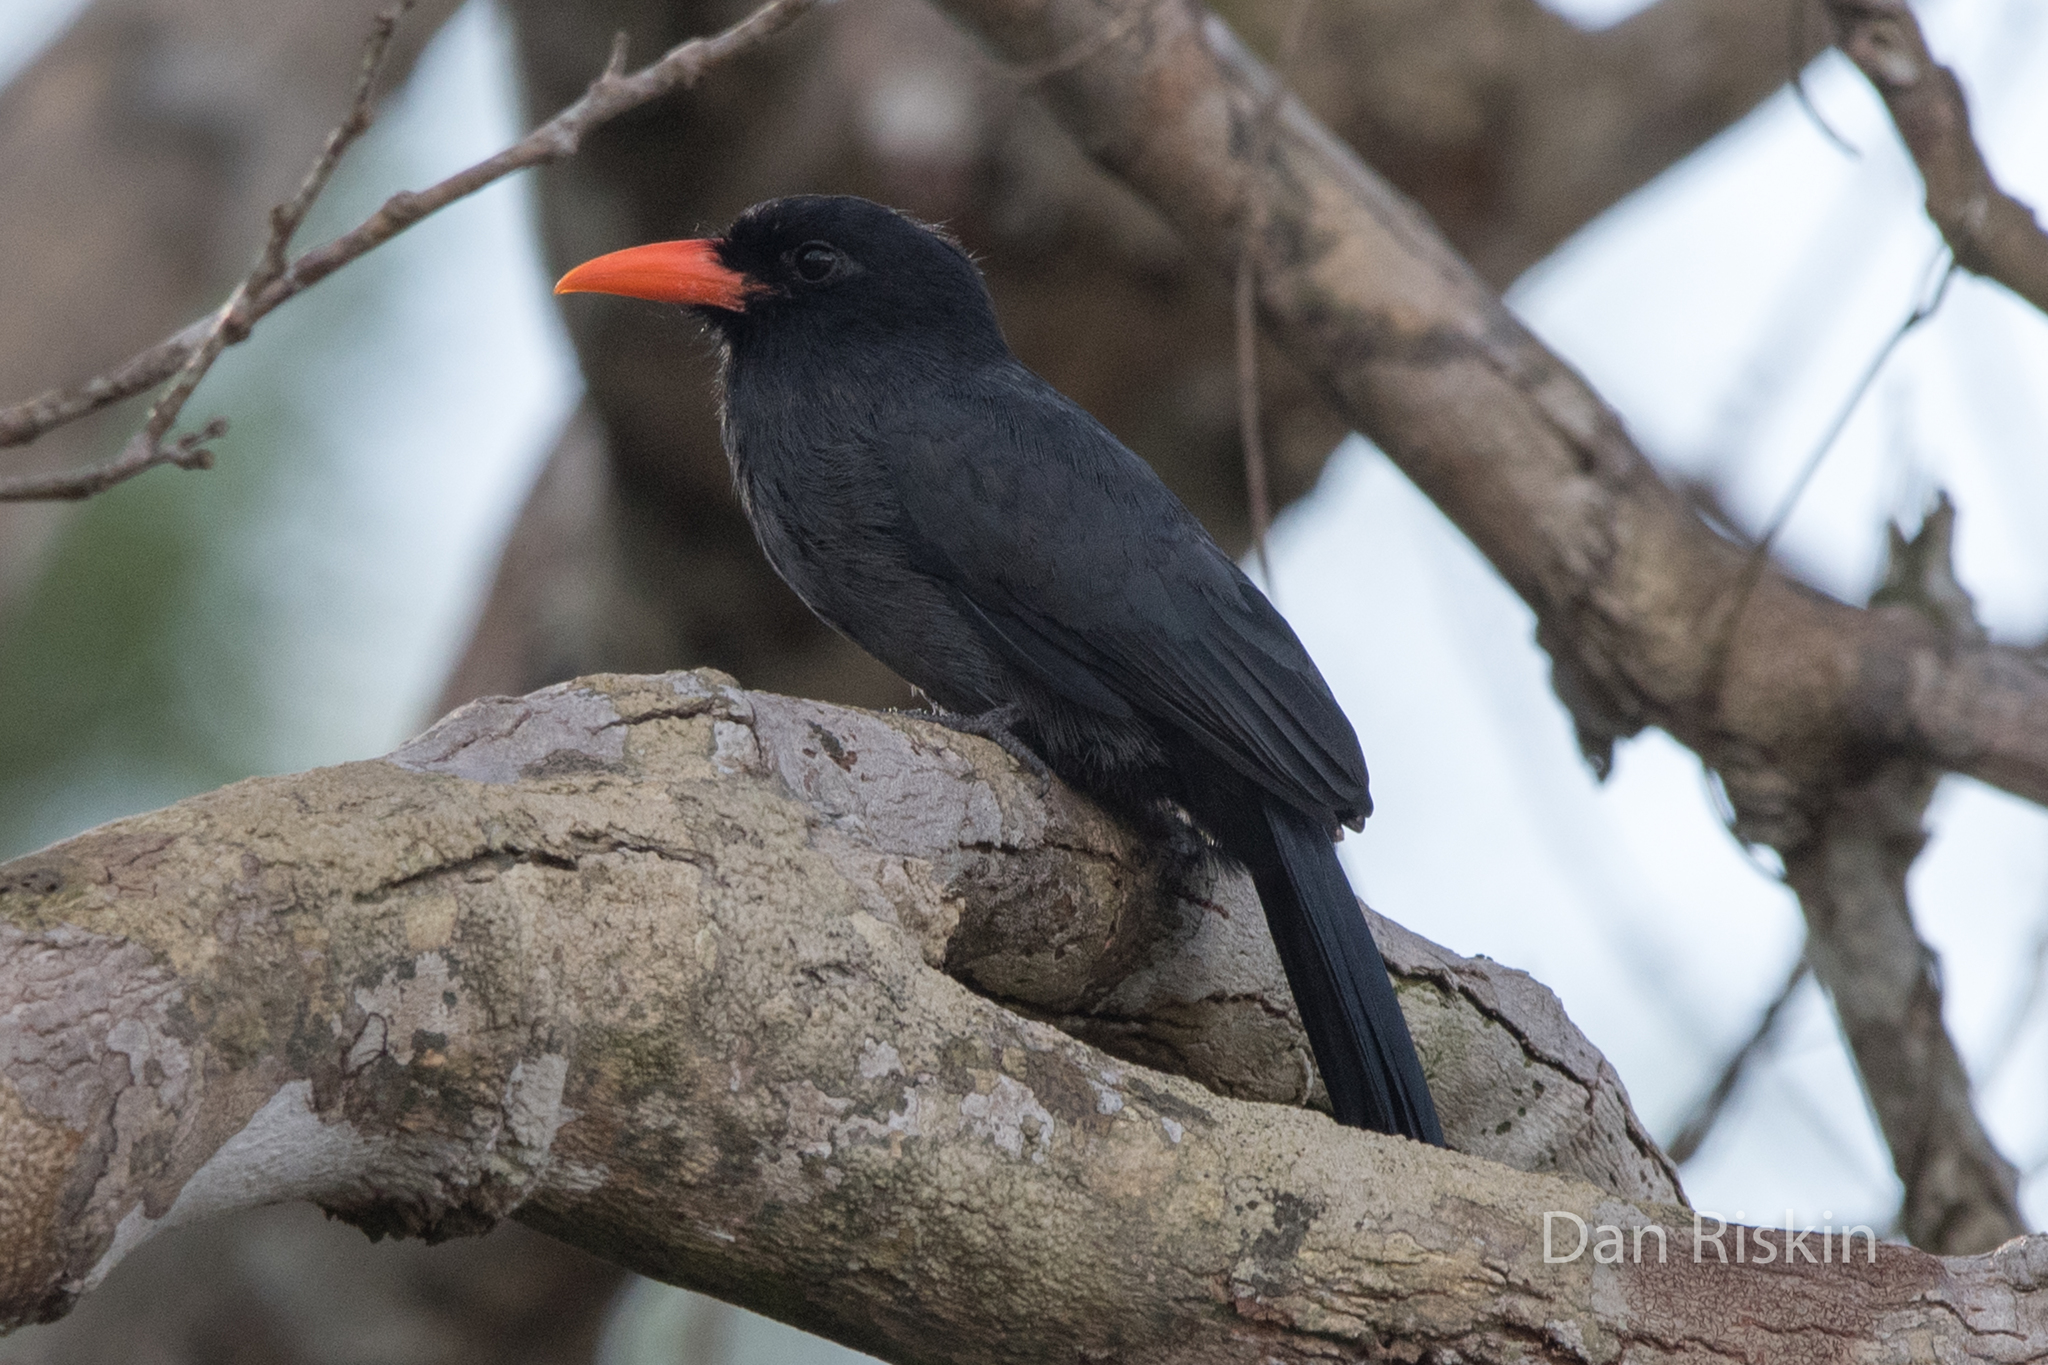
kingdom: Animalia
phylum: Chordata
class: Aves
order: Piciformes
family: Bucconidae
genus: Monasa
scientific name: Monasa nigrifrons
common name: Black-fronted nunbird
